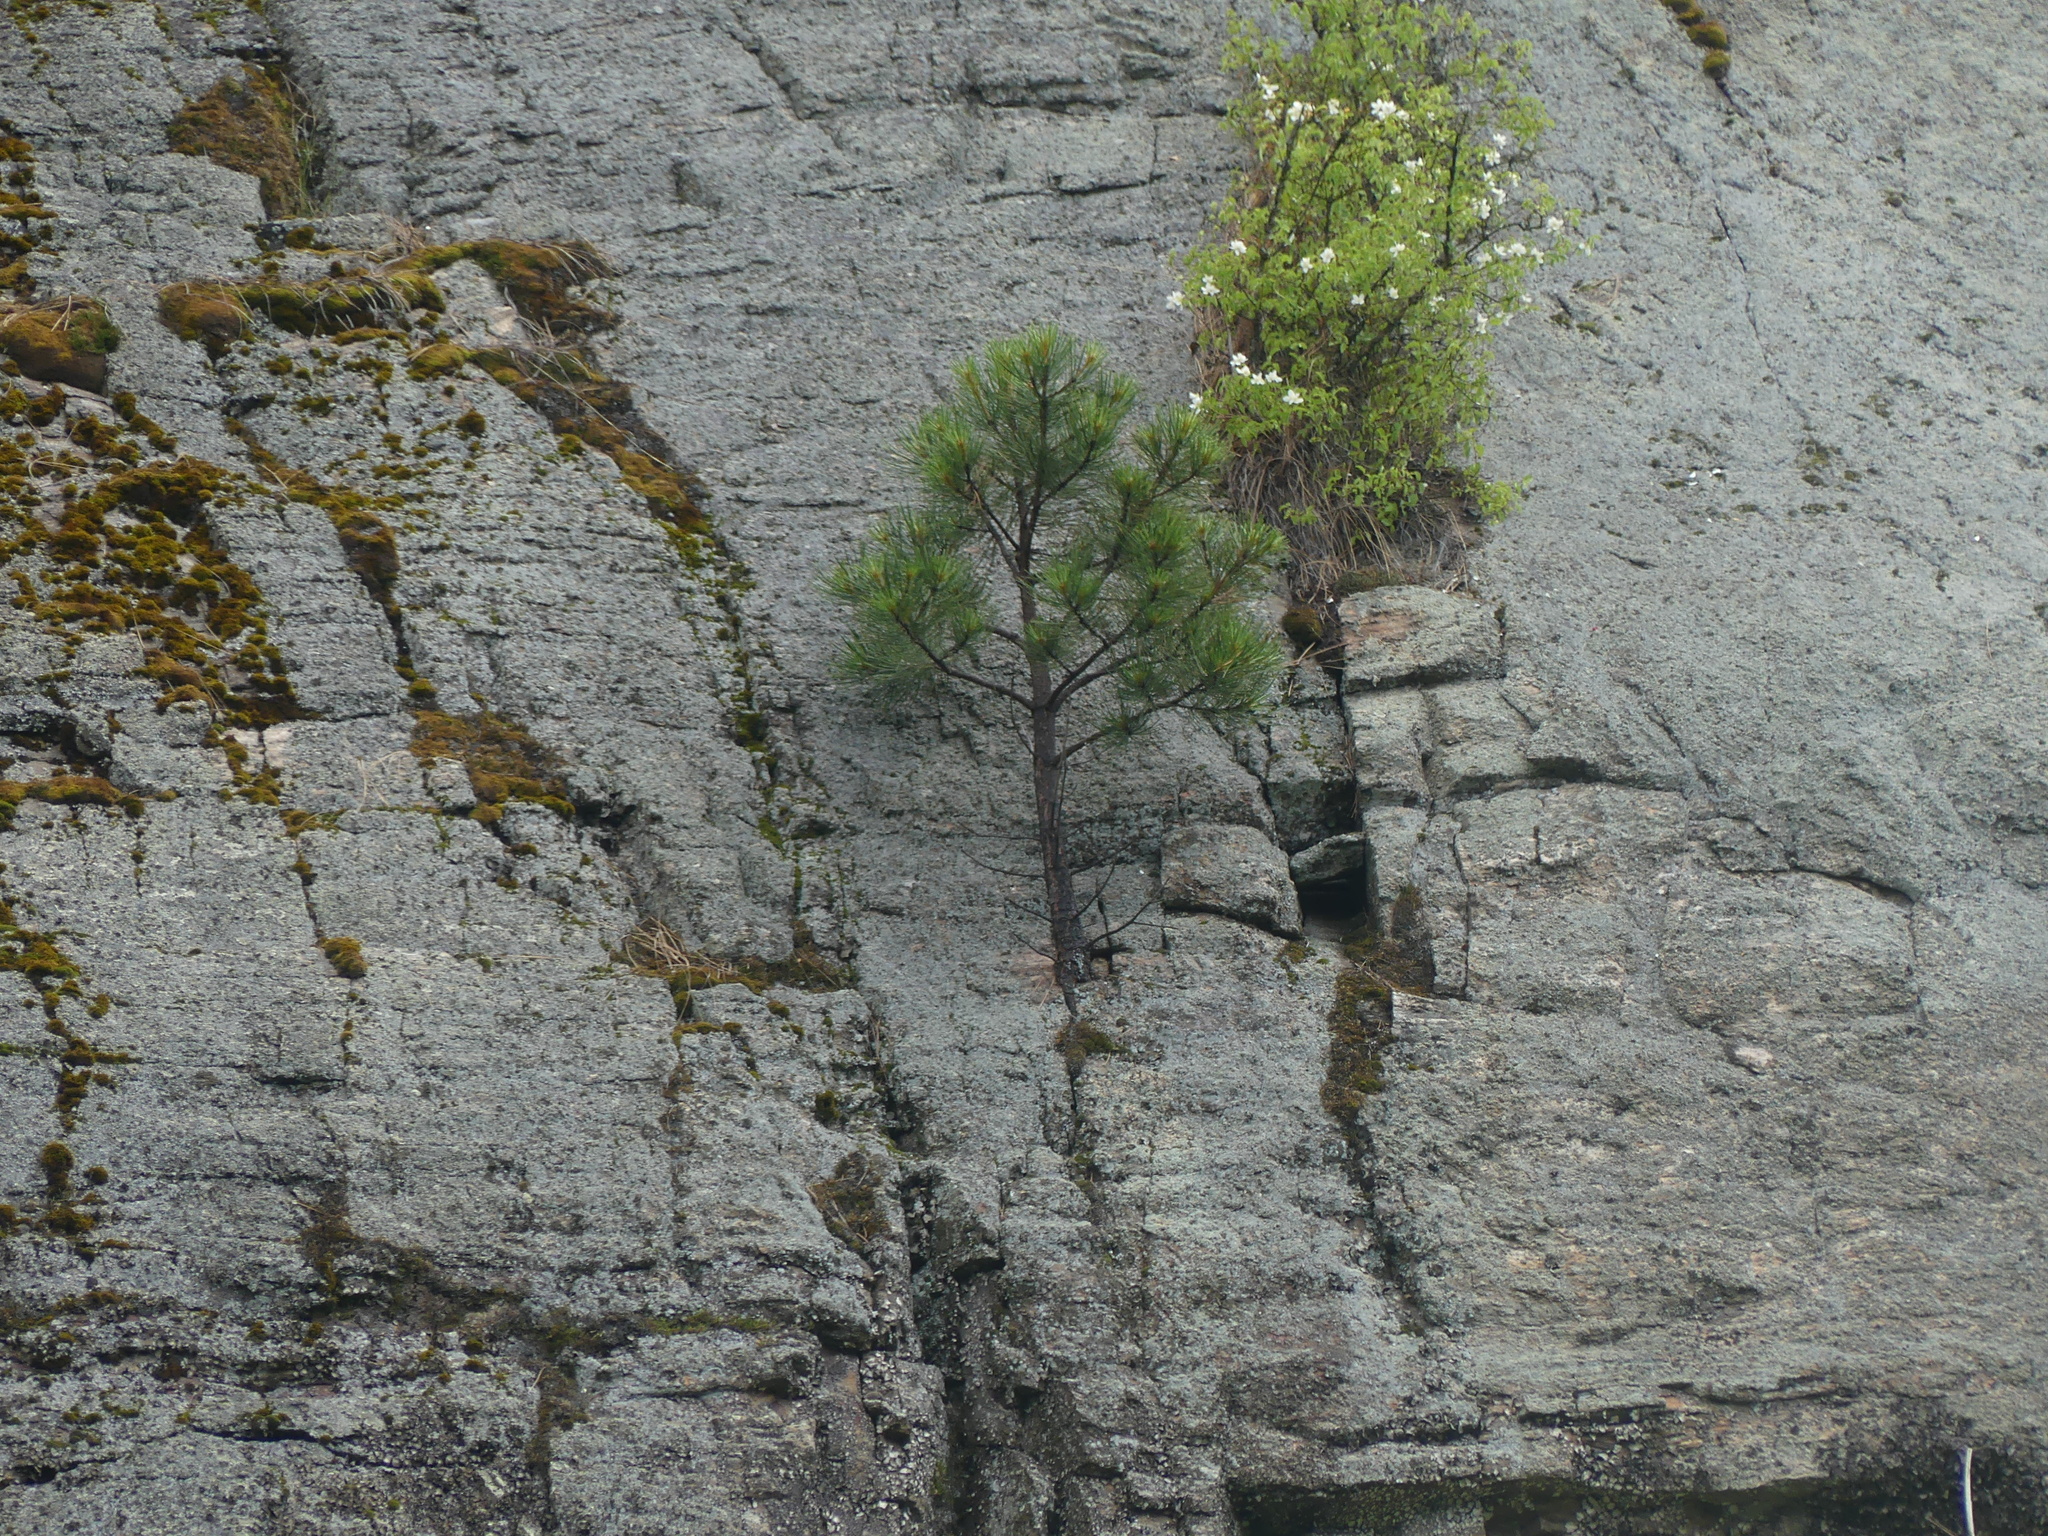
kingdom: Plantae
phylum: Tracheophyta
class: Pinopsida
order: Pinales
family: Pinaceae
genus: Pinus
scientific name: Pinus ponderosa
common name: Western yellow-pine
